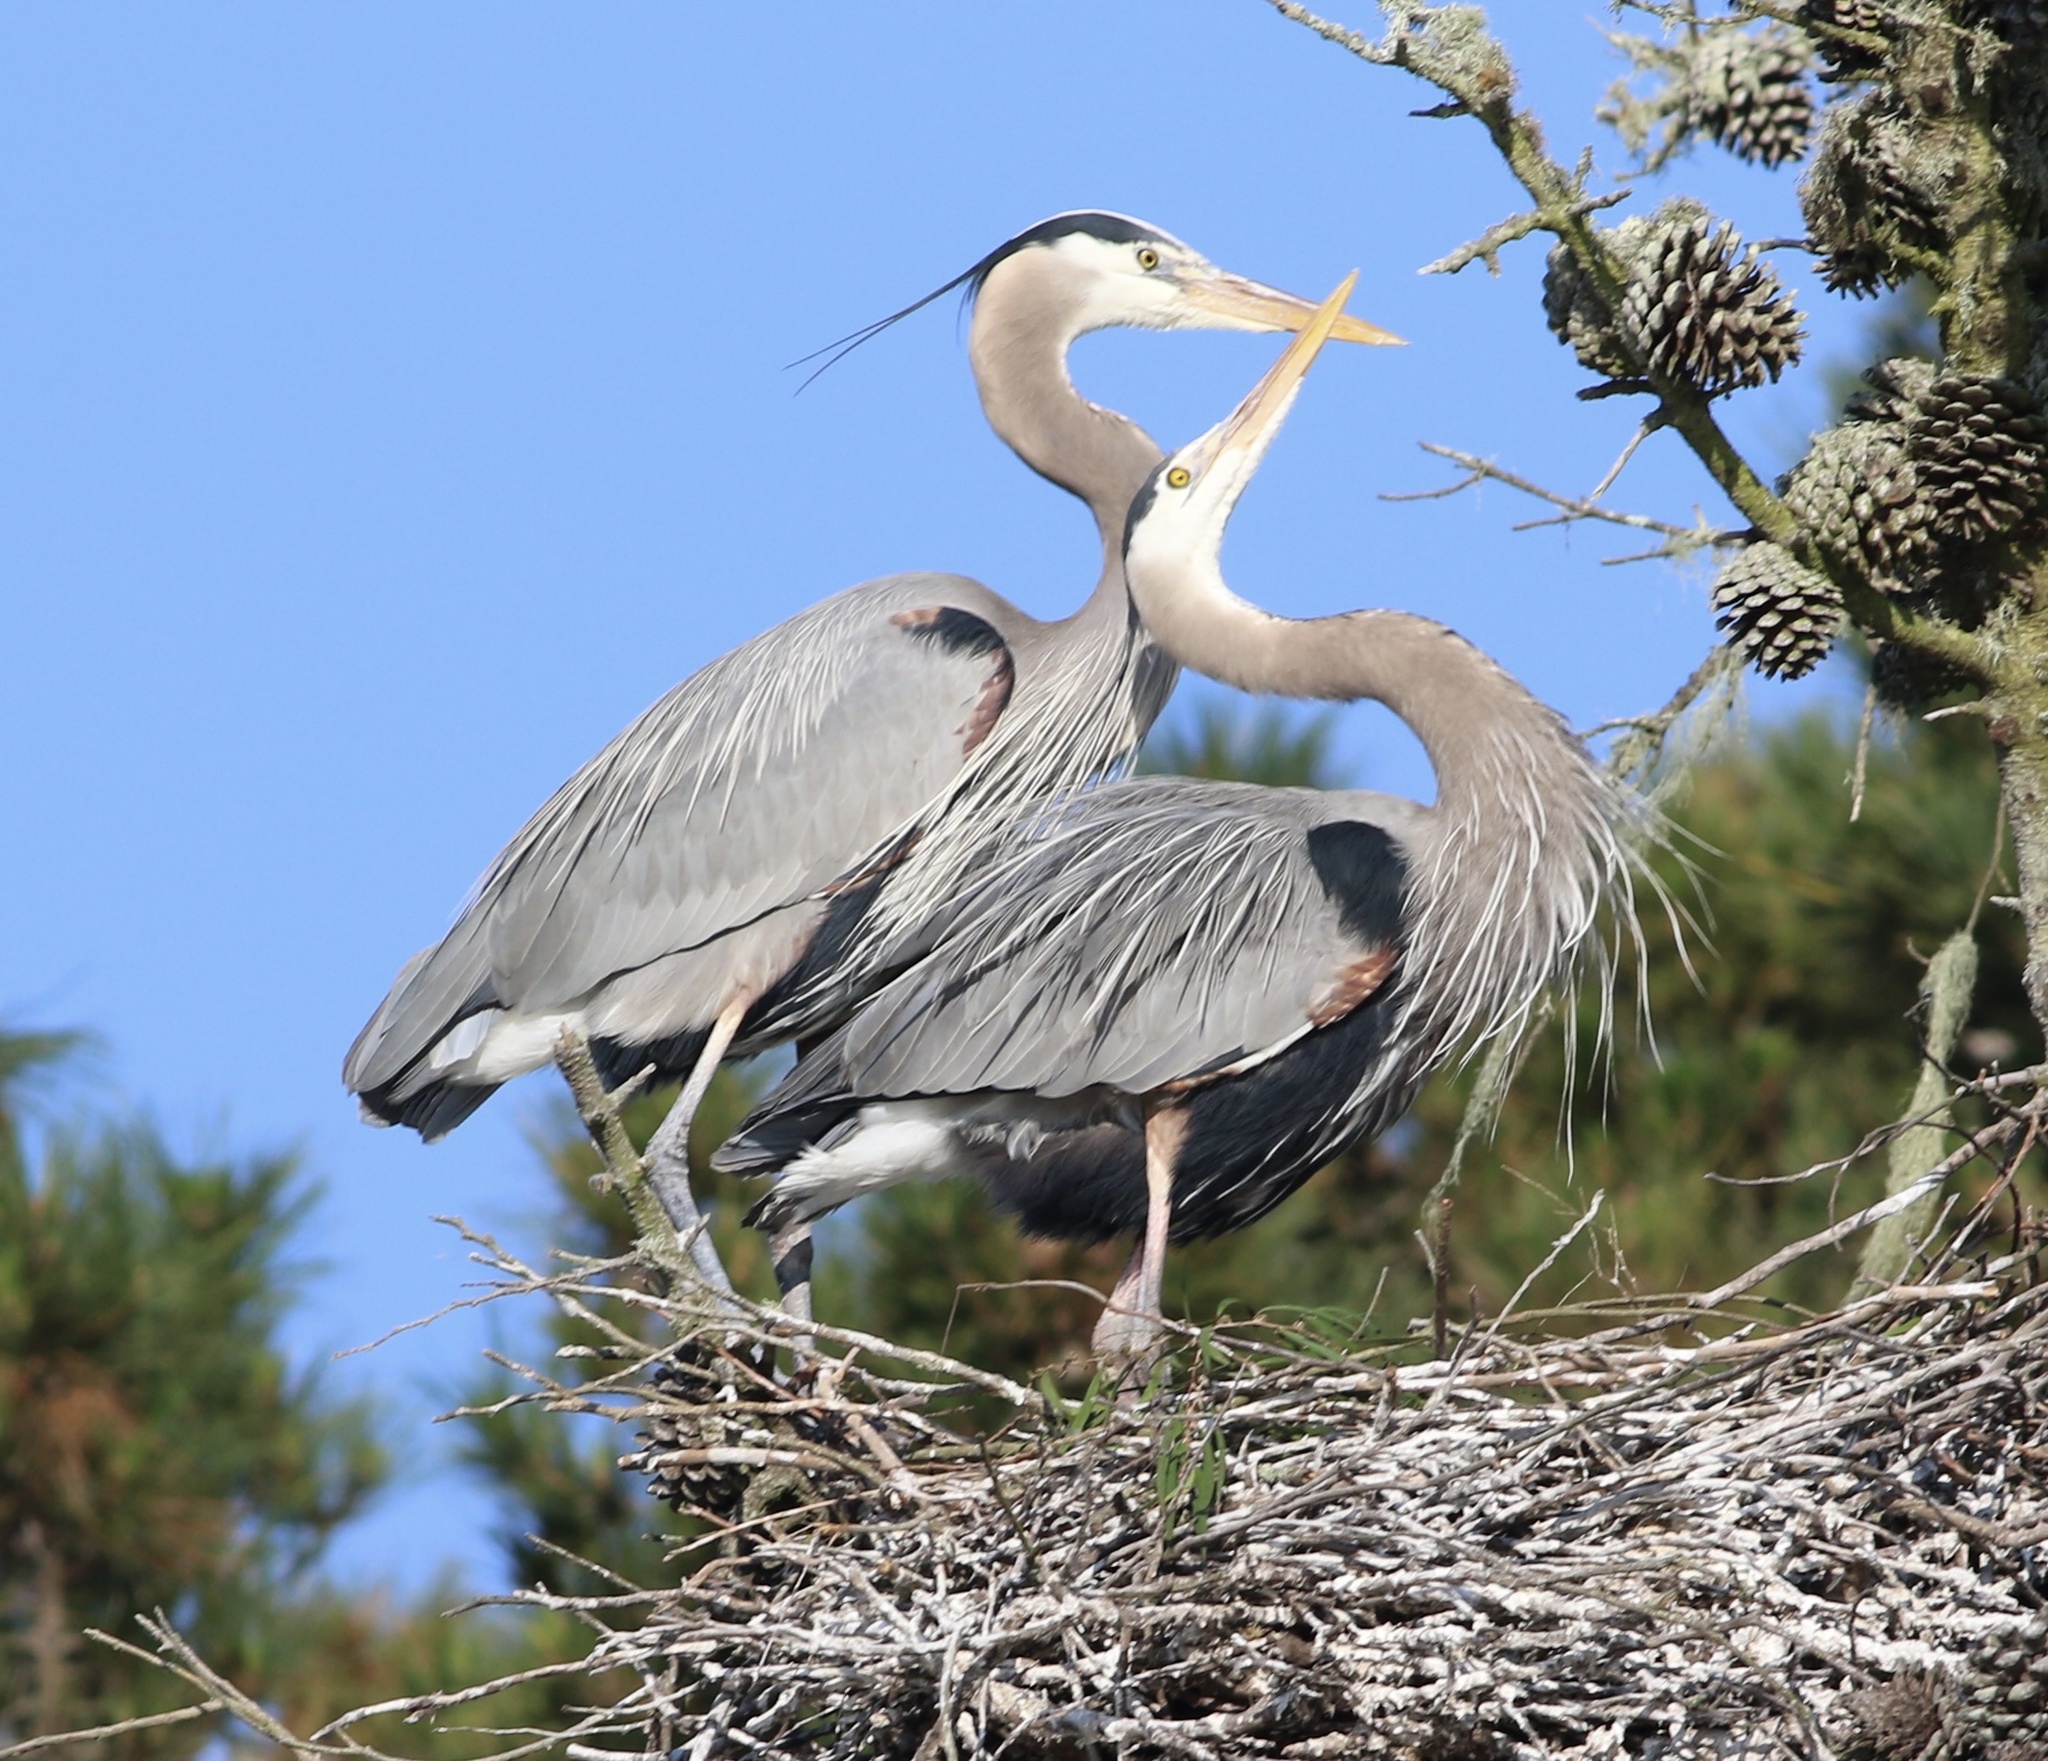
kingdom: Animalia
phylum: Chordata
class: Aves
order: Pelecaniformes
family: Ardeidae
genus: Ardea
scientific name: Ardea herodias
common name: Great blue heron
